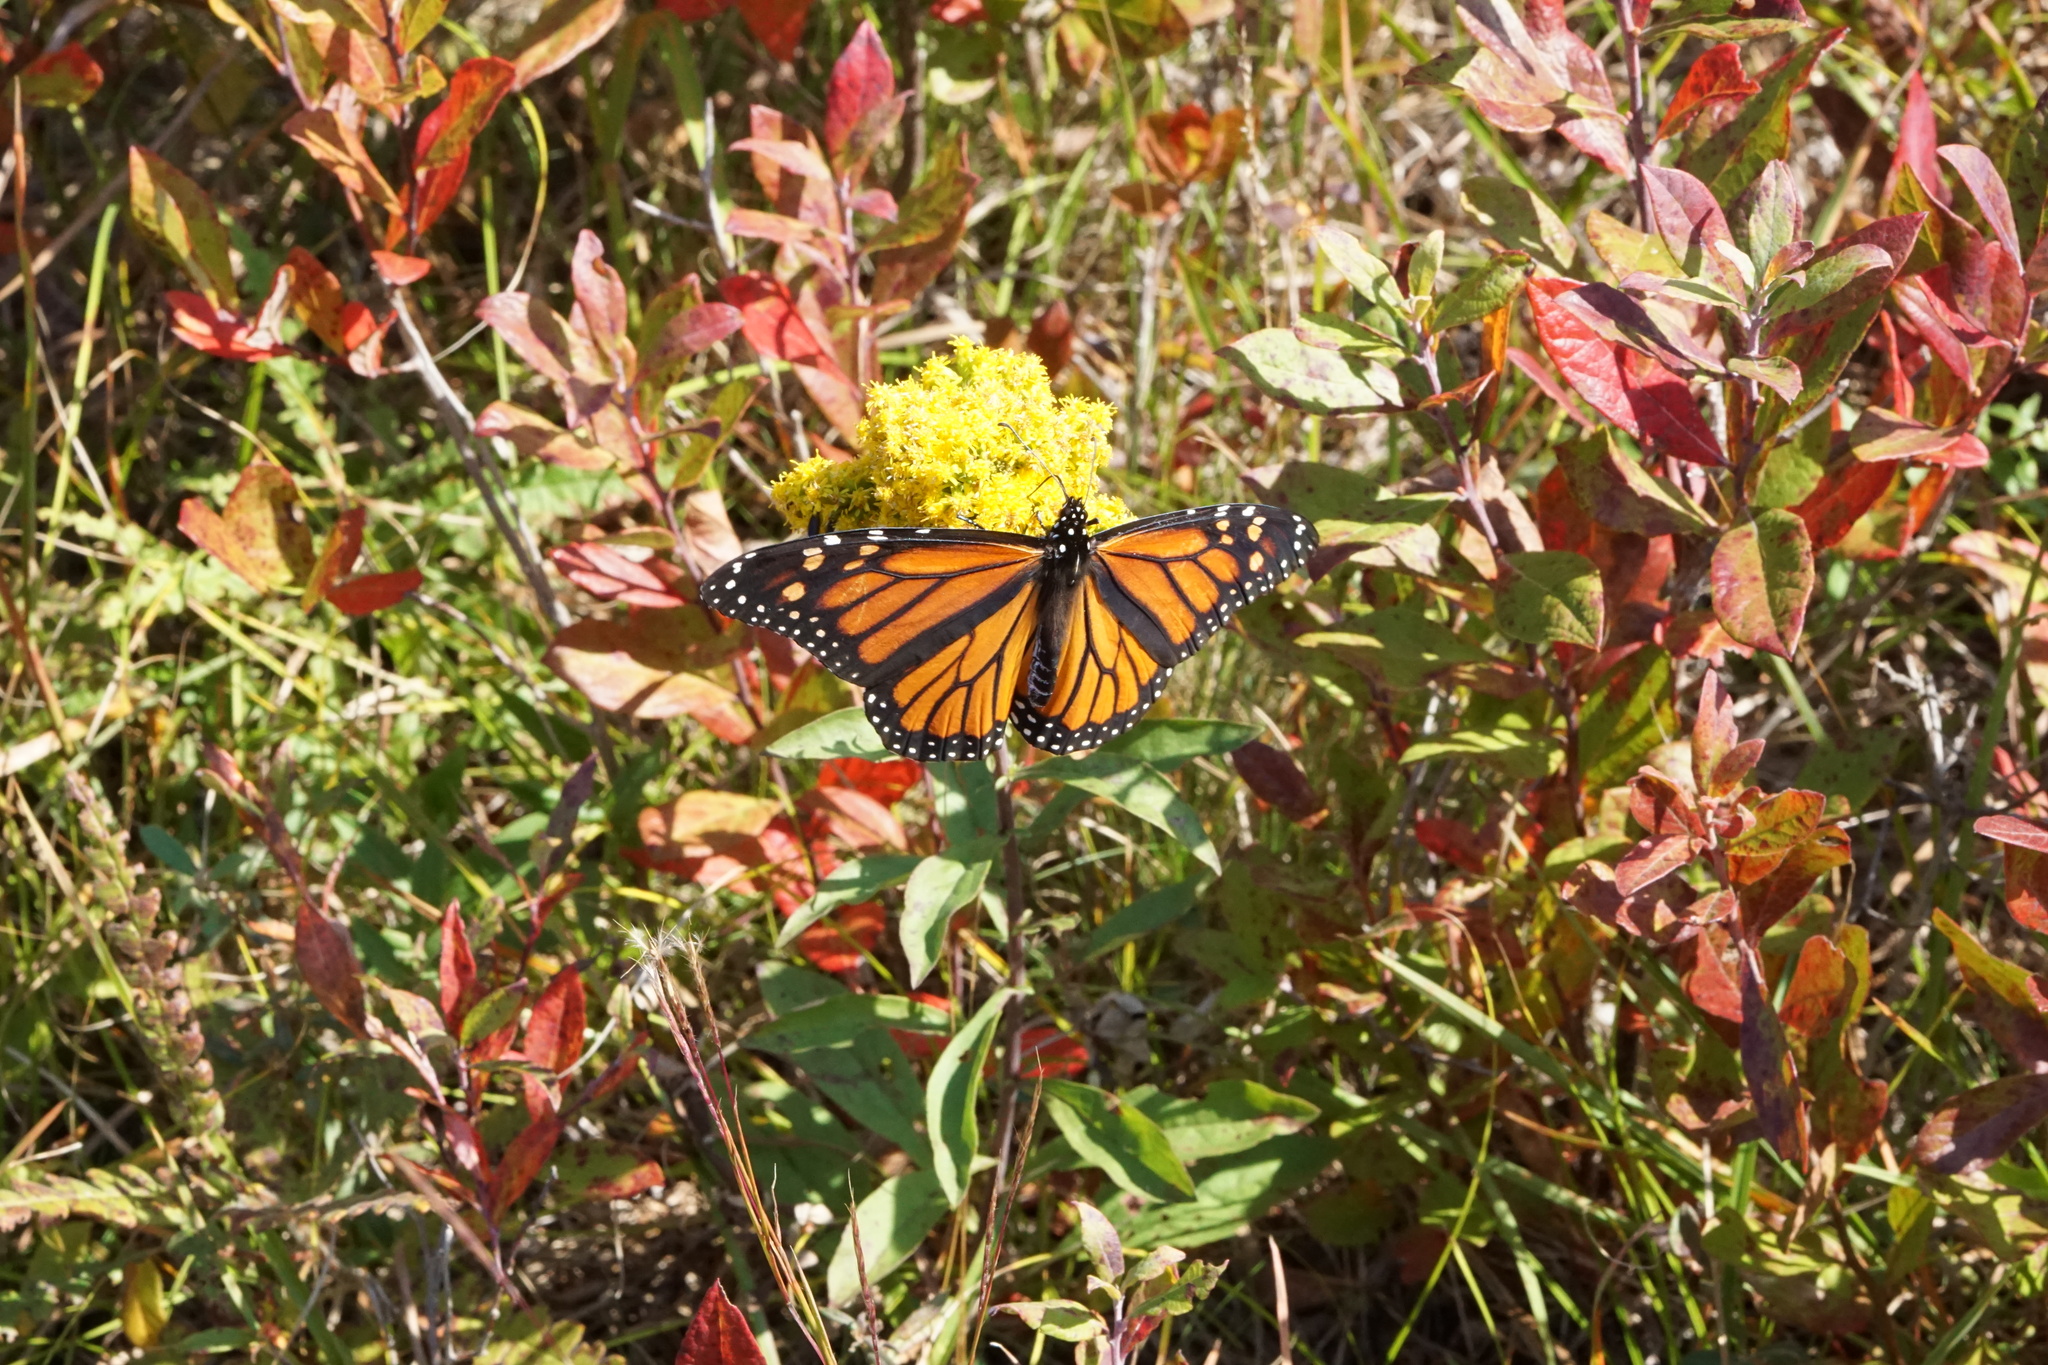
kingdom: Animalia
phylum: Arthropoda
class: Insecta
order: Lepidoptera
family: Nymphalidae
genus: Danaus
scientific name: Danaus plexippus
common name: Monarch
